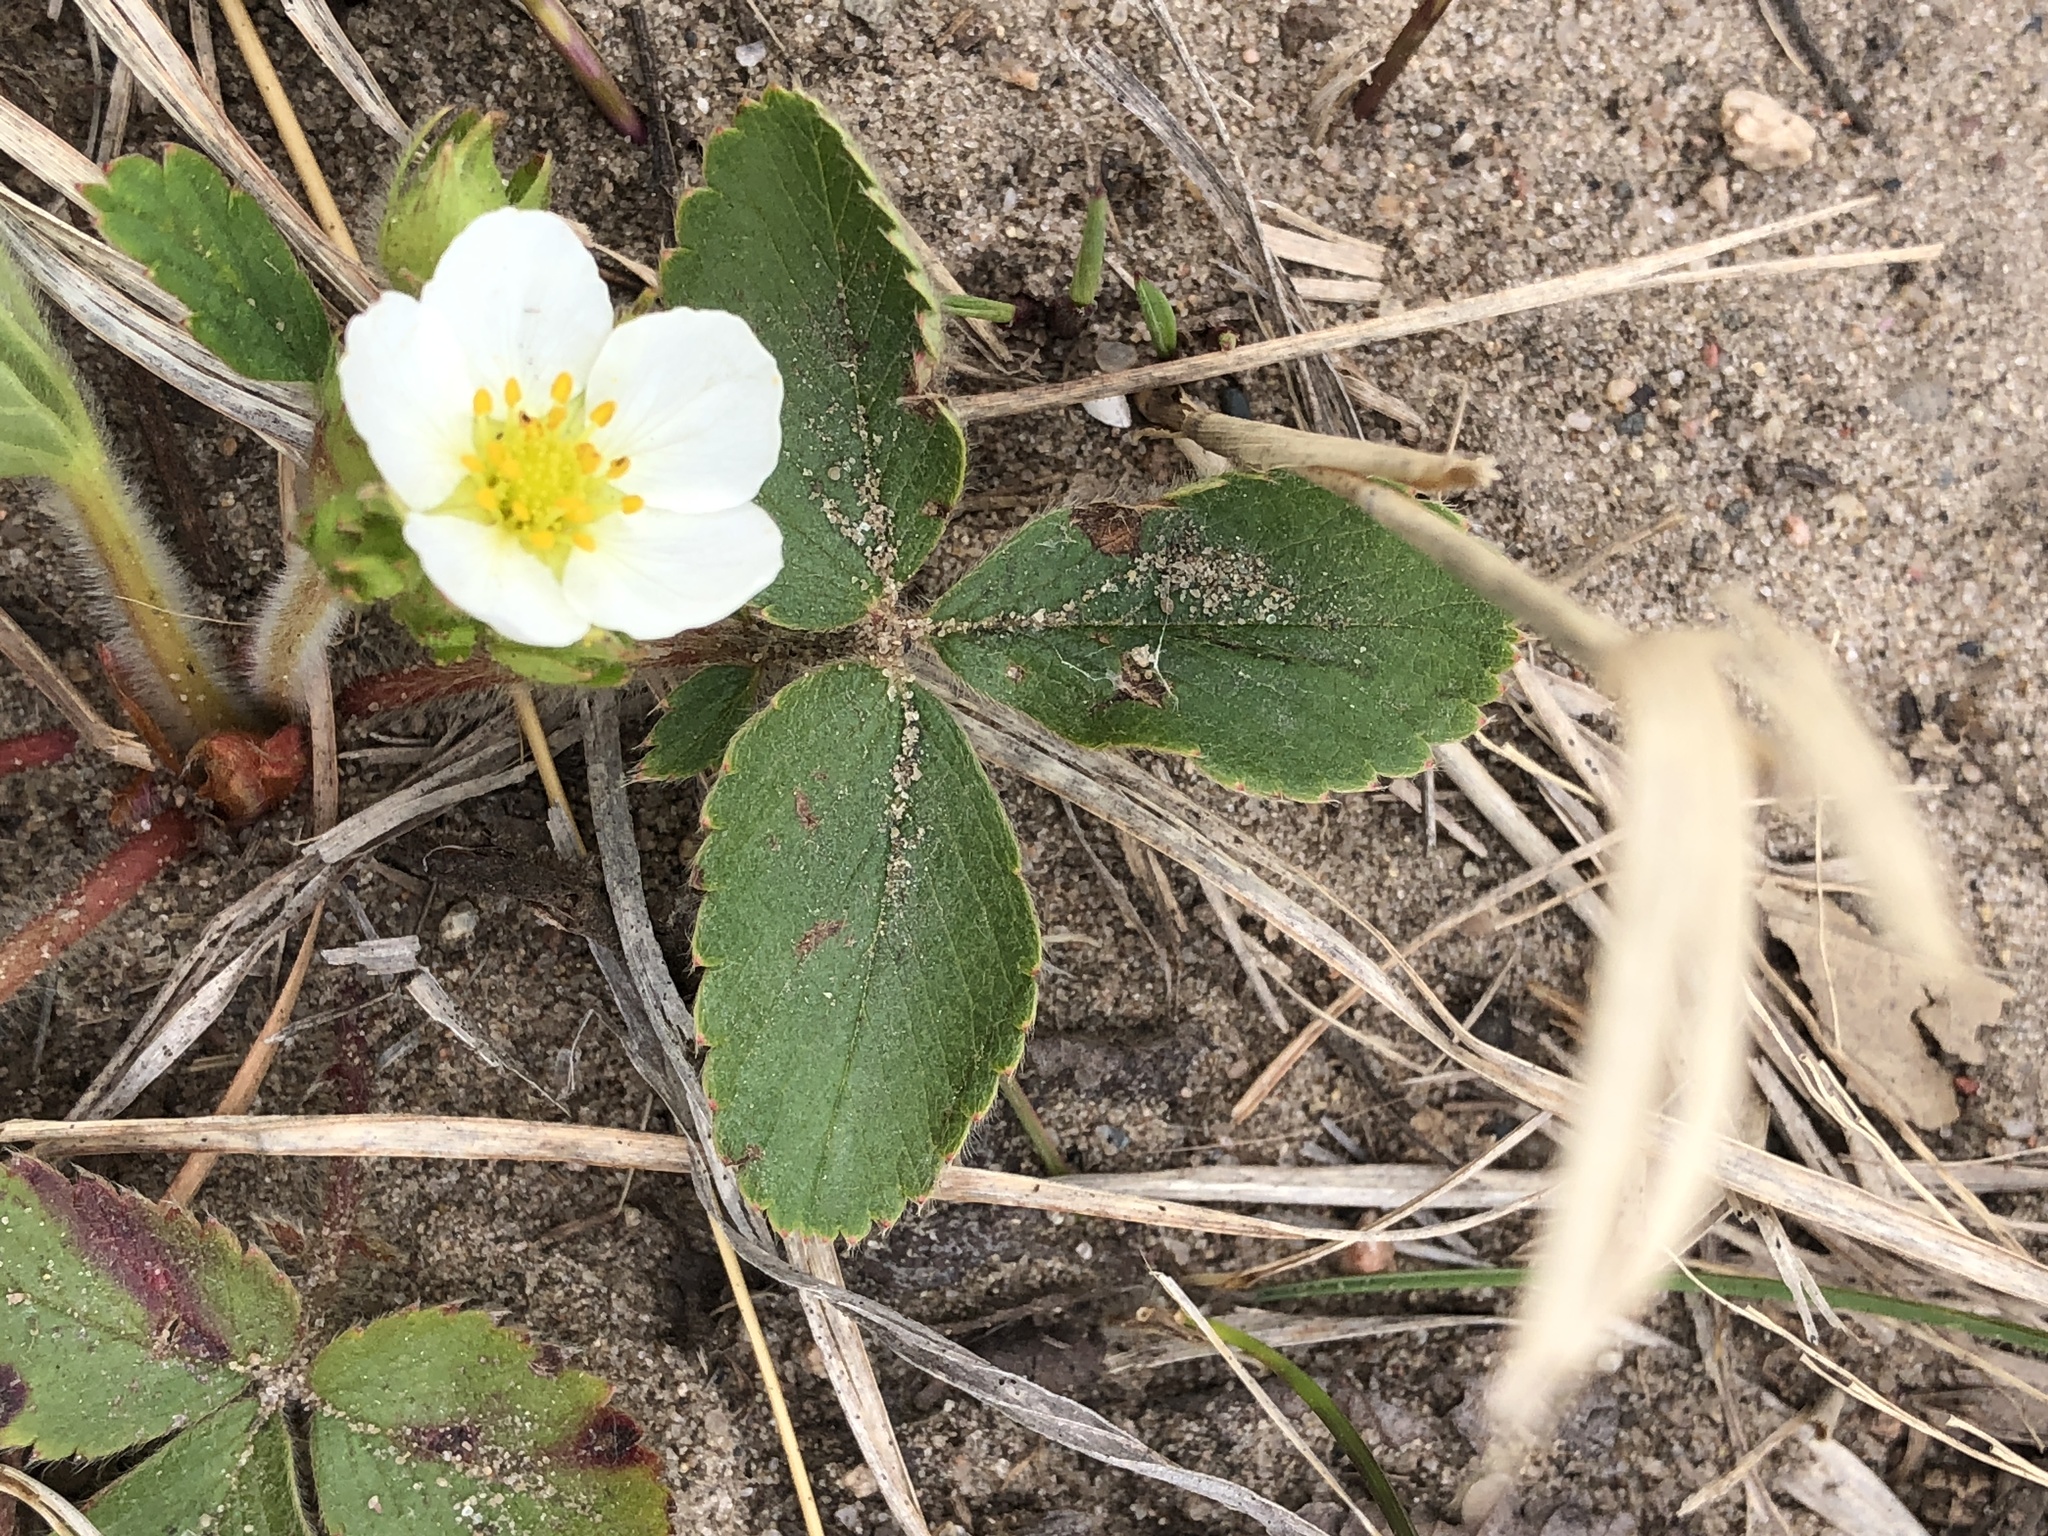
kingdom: Plantae
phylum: Tracheophyta
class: Magnoliopsida
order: Rosales
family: Rosaceae
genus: Fragaria
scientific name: Fragaria virginiana
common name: Thickleaved wild strawberry
